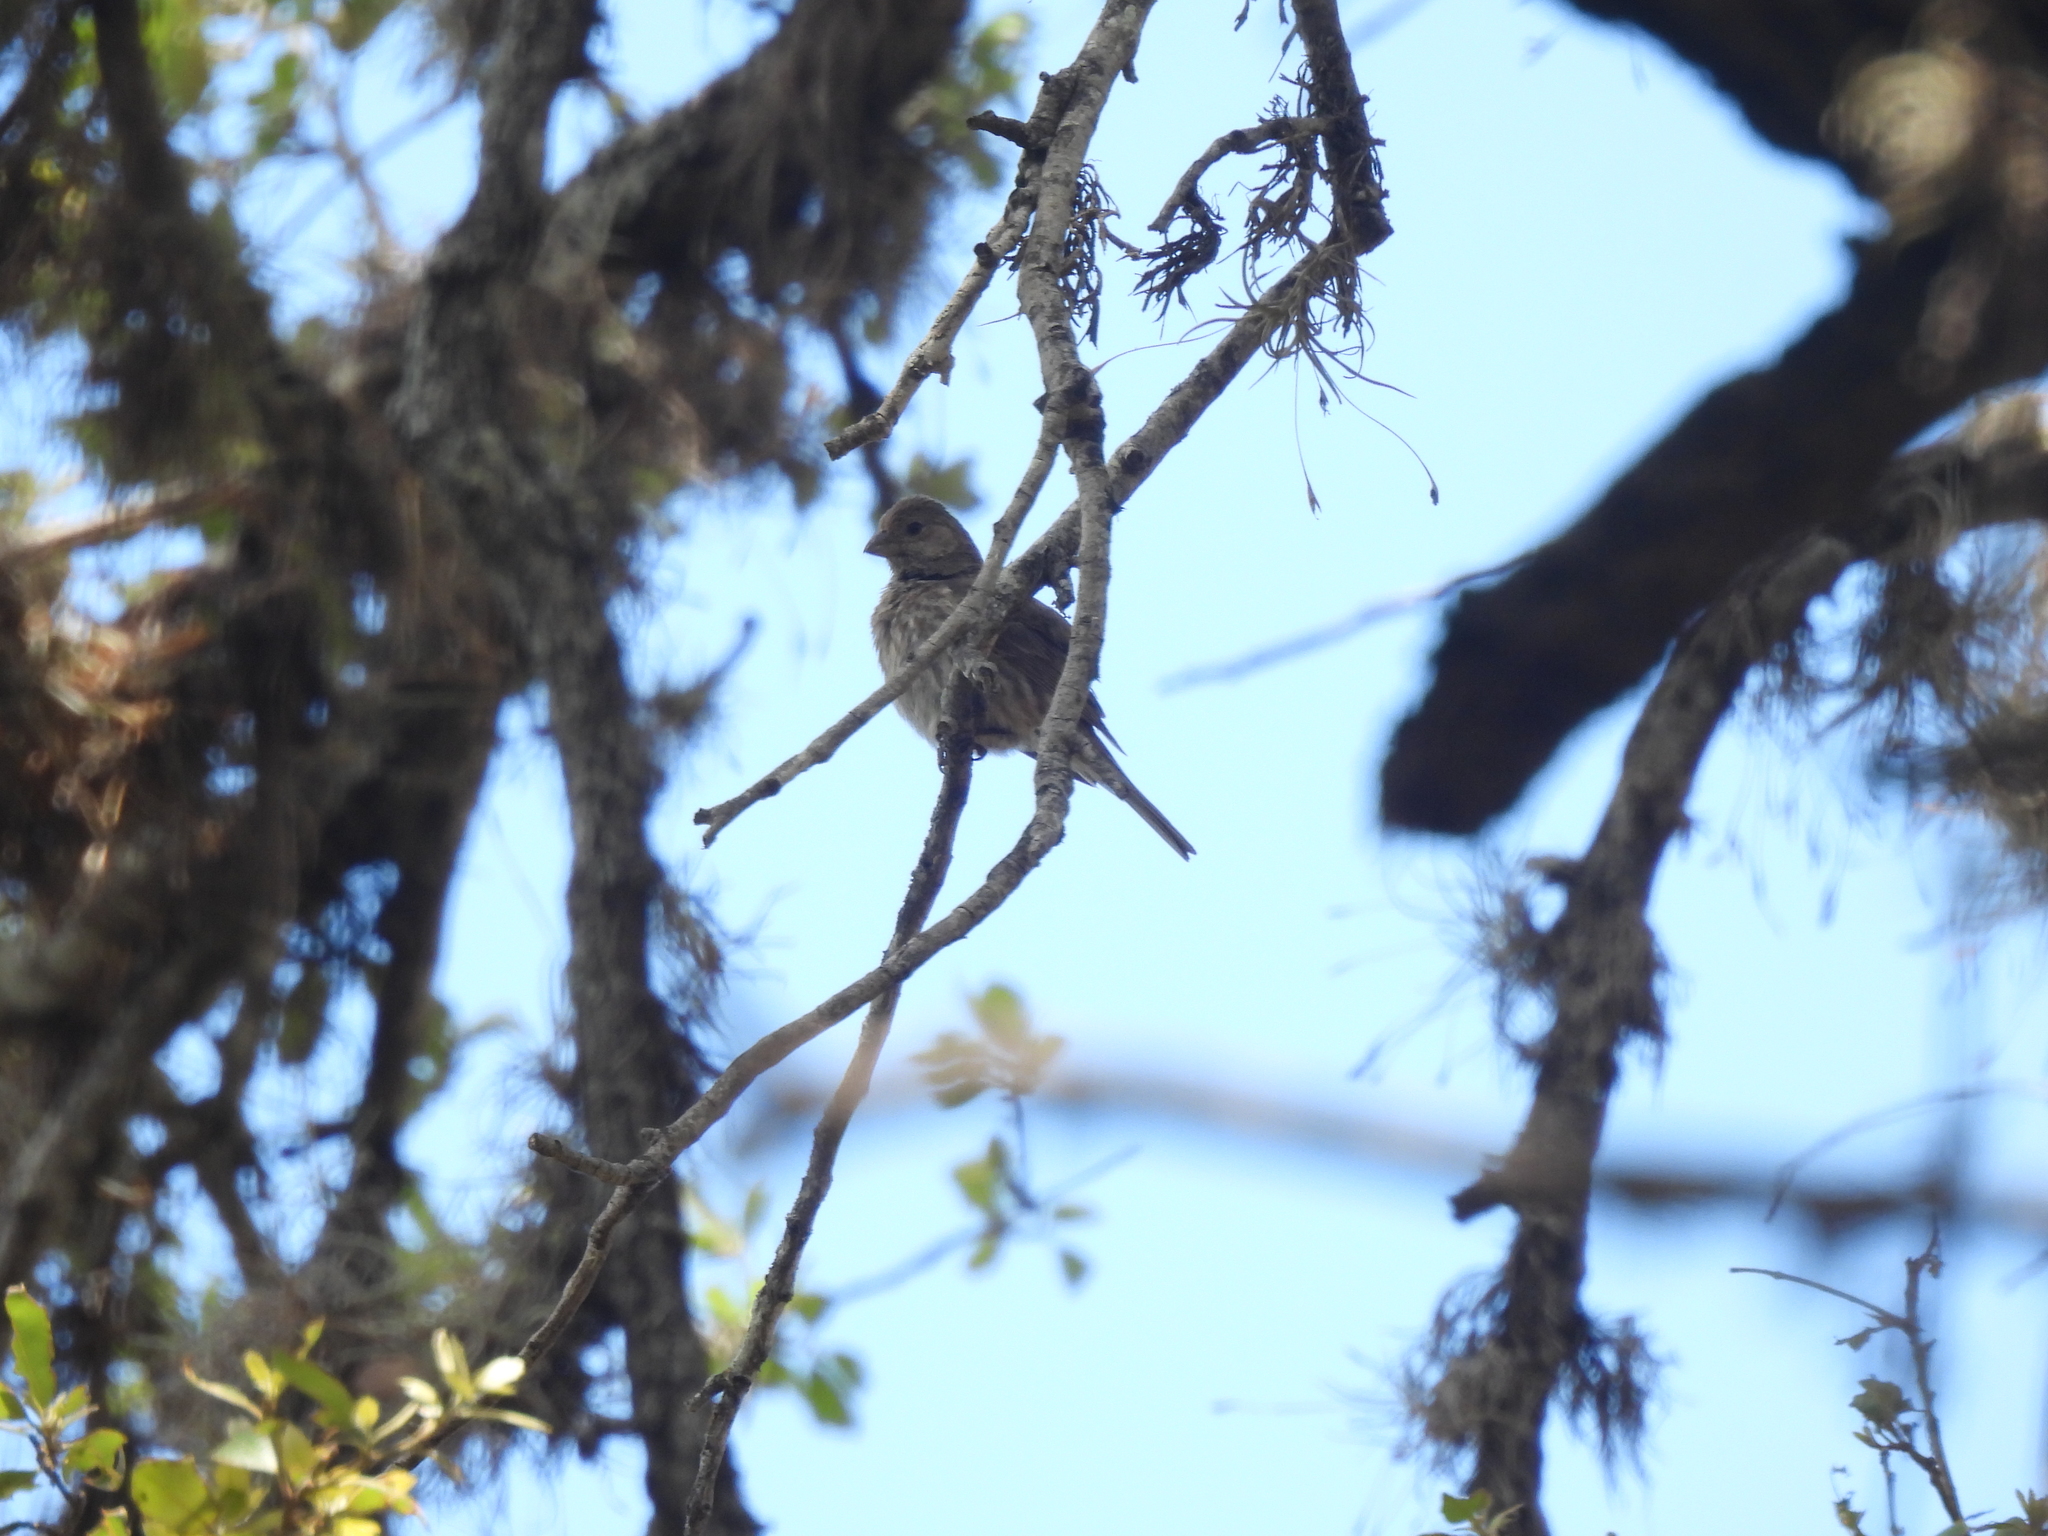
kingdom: Animalia
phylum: Chordata
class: Aves
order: Passeriformes
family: Fringillidae
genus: Haemorhous
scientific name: Haemorhous mexicanus
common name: House finch
